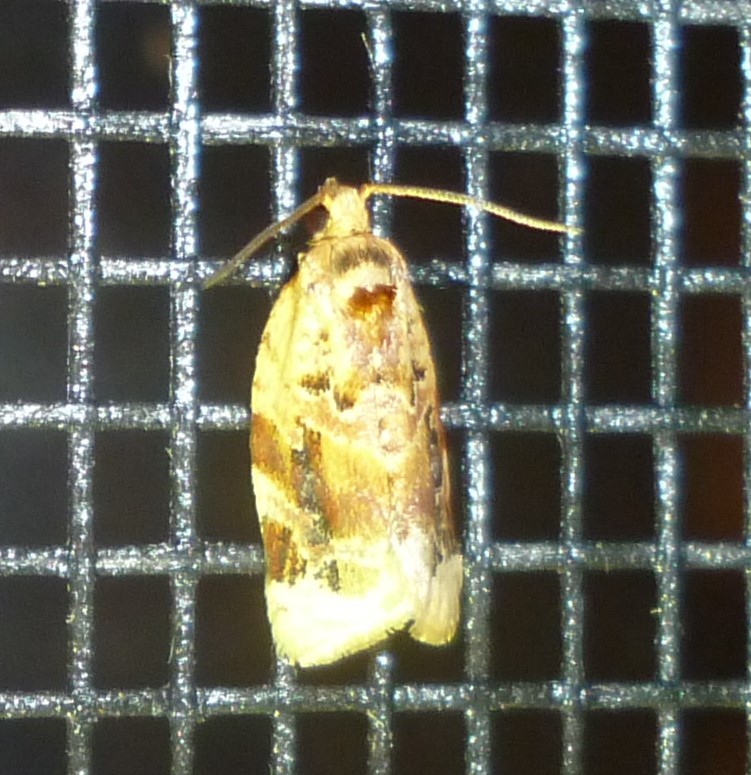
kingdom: Animalia
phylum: Arthropoda
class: Insecta
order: Lepidoptera
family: Tortricidae
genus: Argyrotaenia
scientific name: Argyrotaenia velutinana
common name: Red-banded leafroller moth
